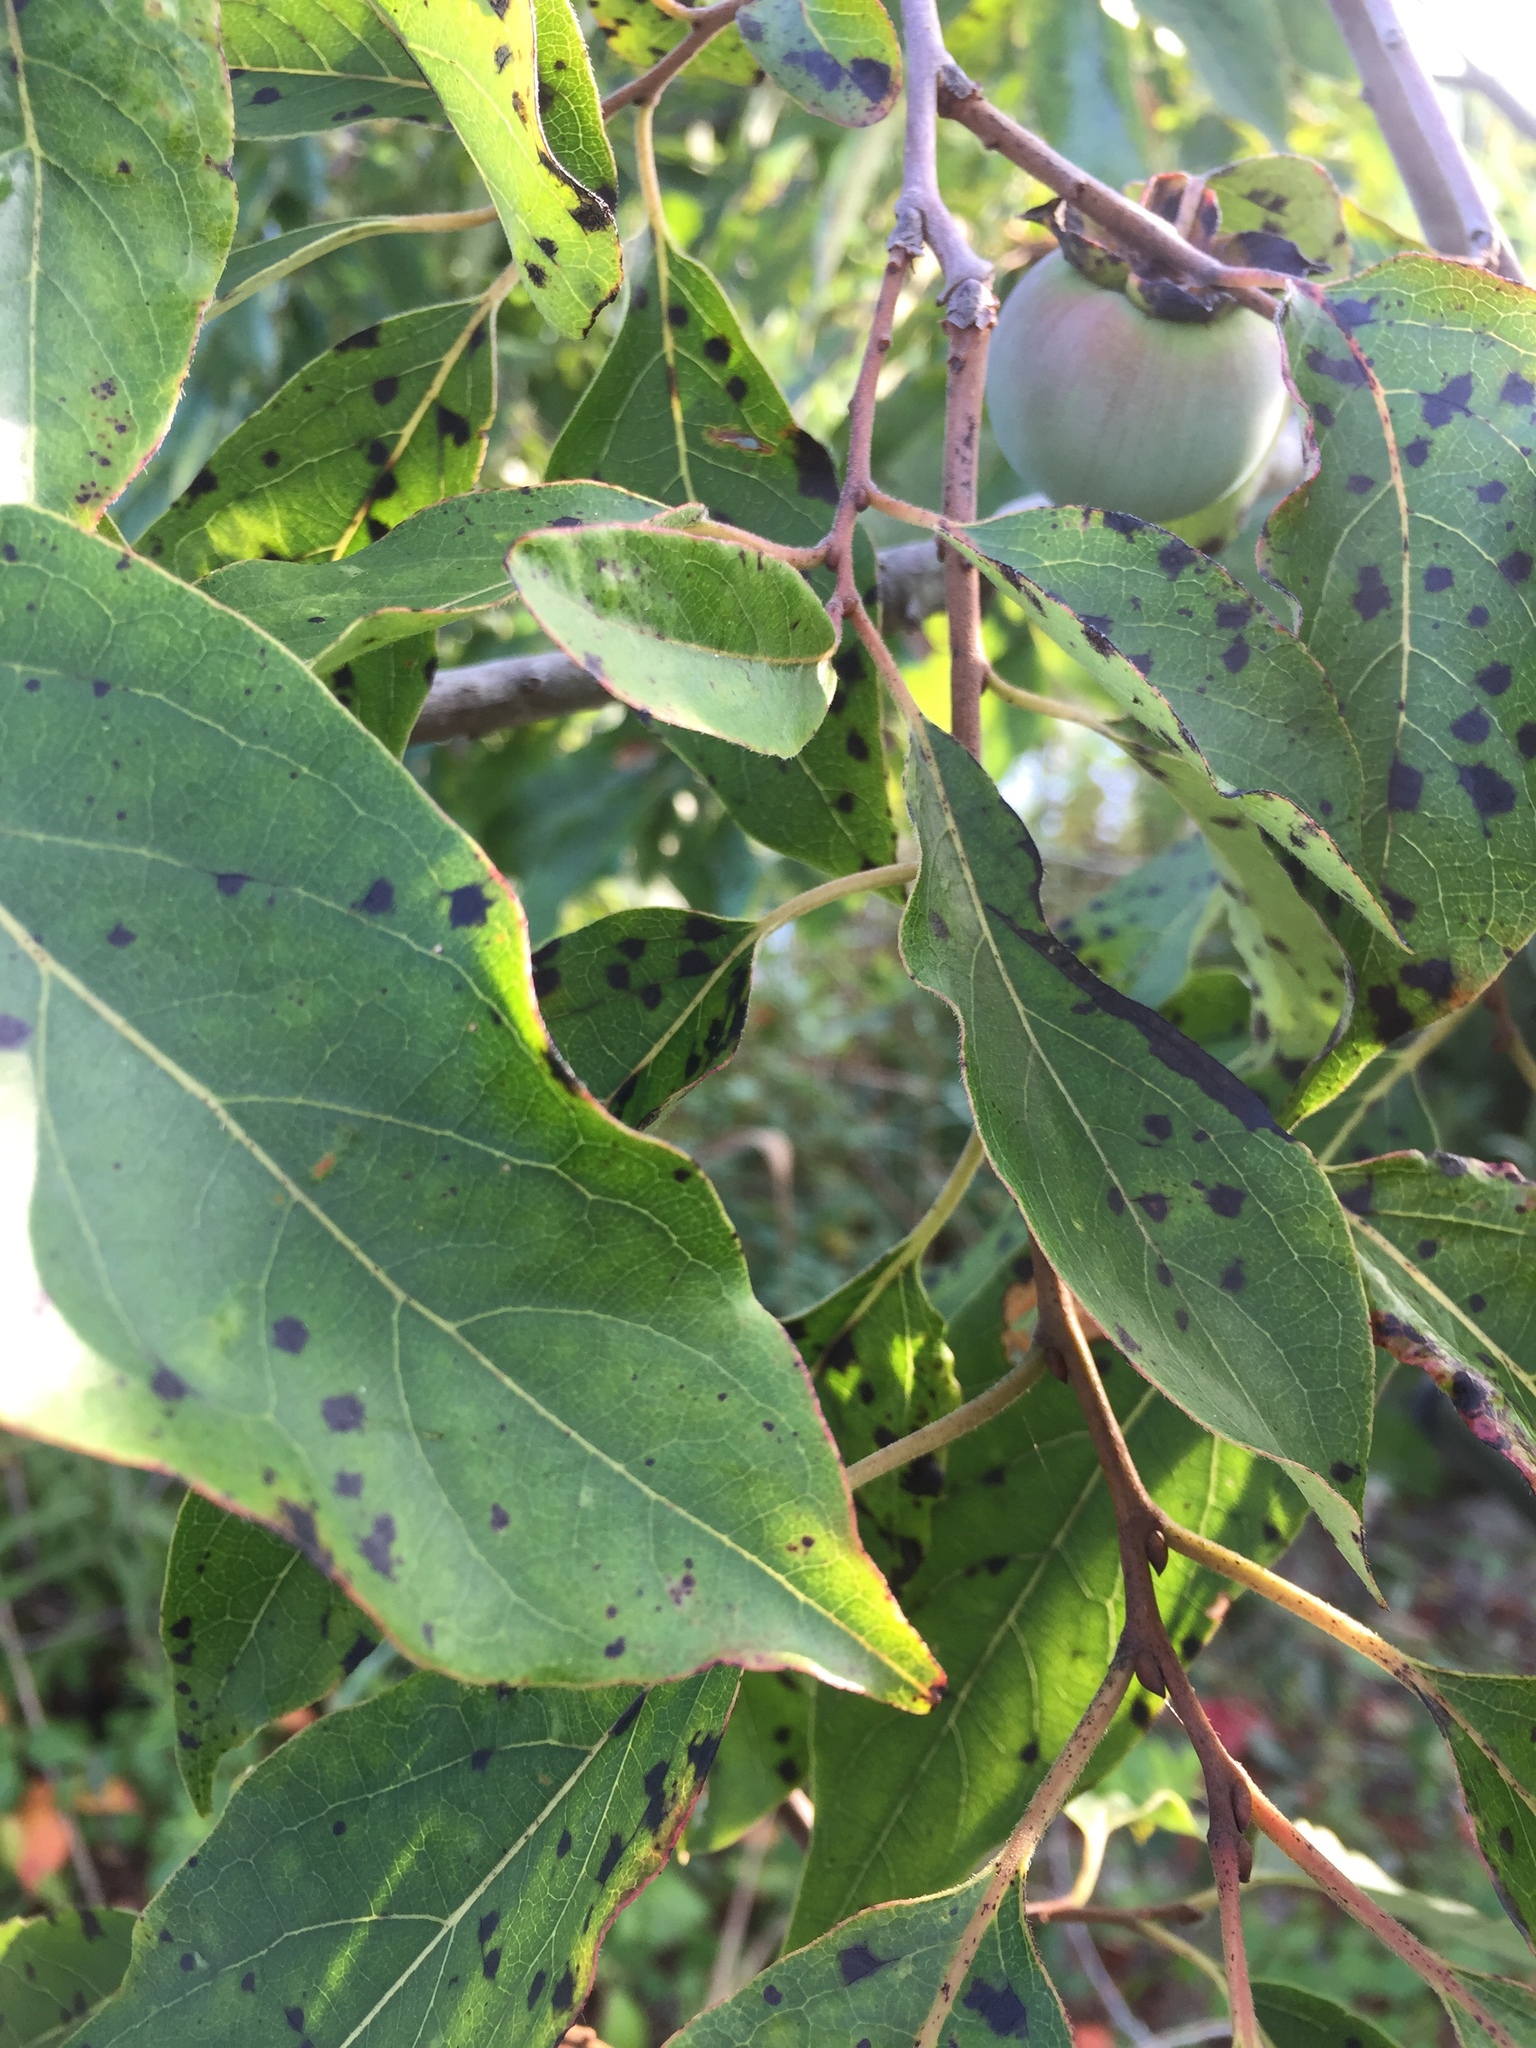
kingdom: Plantae
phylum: Tracheophyta
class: Magnoliopsida
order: Ericales
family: Ebenaceae
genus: Diospyros
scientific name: Diospyros virginiana
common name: Persimmon
